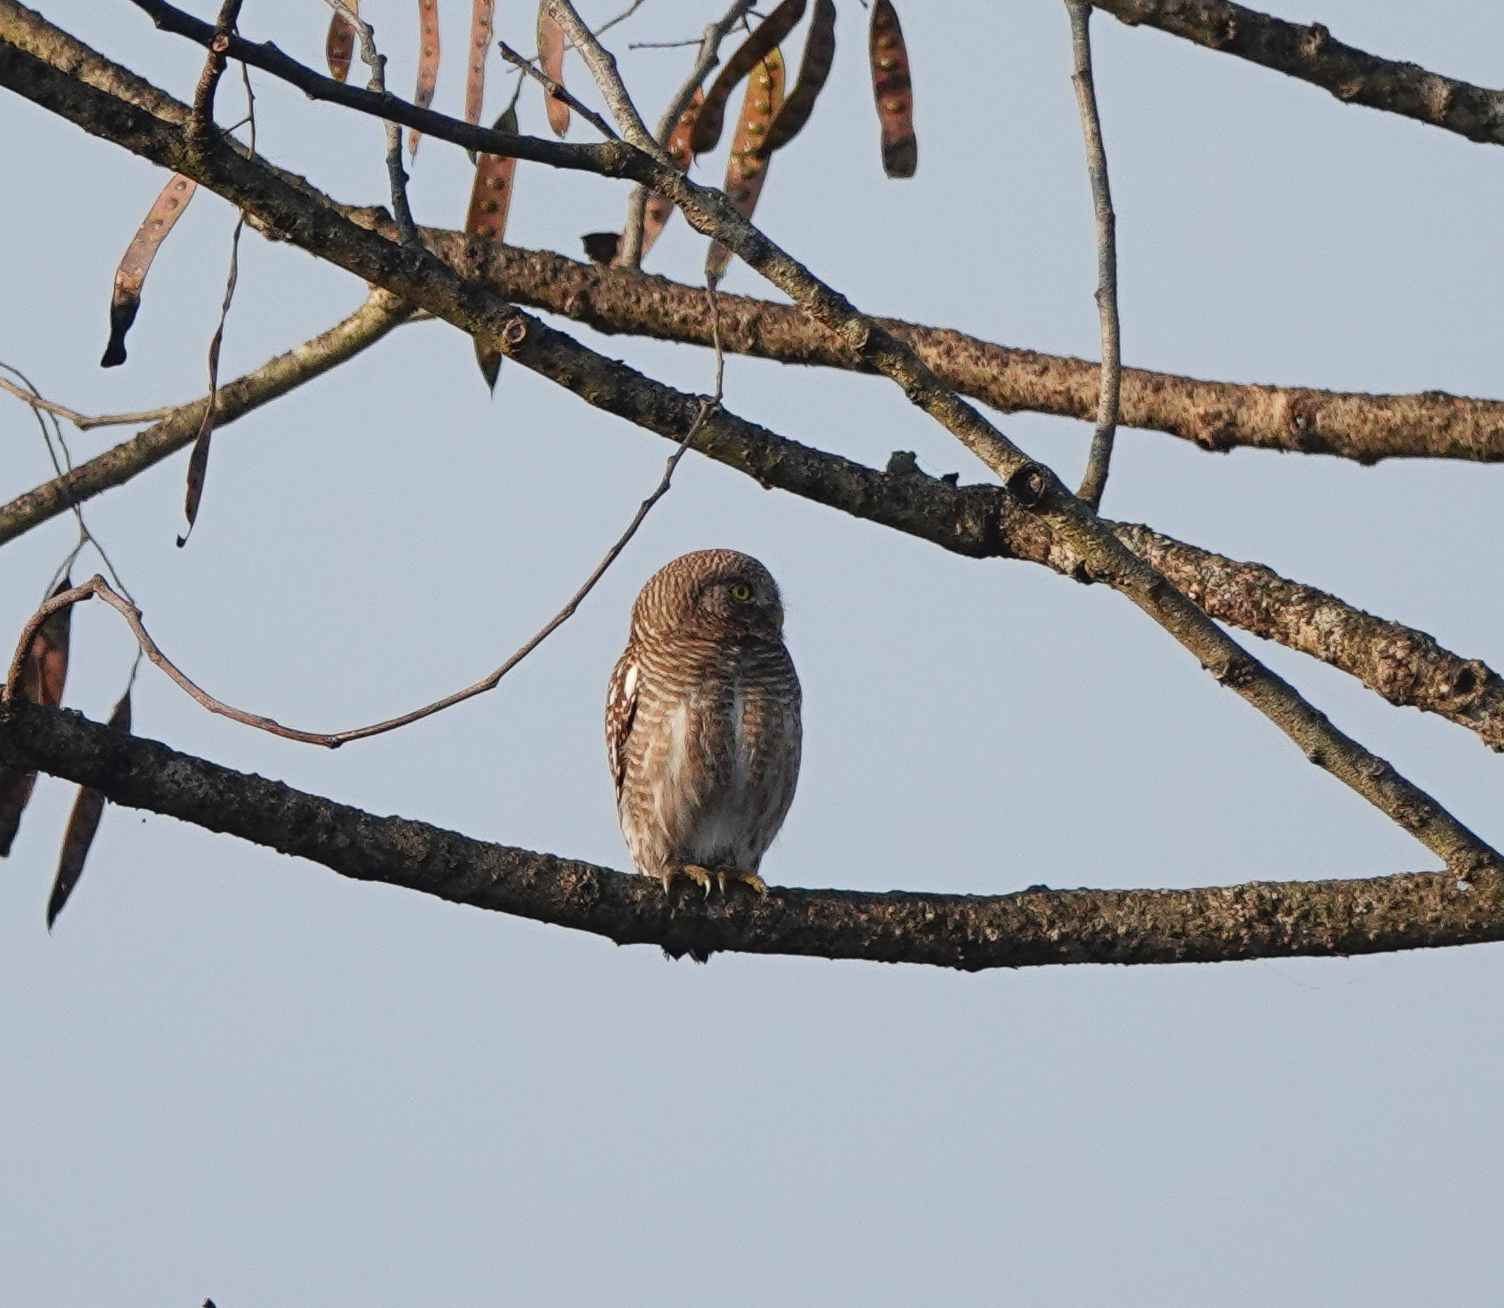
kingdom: Animalia
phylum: Chordata
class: Aves
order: Strigiformes
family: Strigidae
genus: Glaucidium
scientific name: Glaucidium cuculoides
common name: Asian barred owlet
